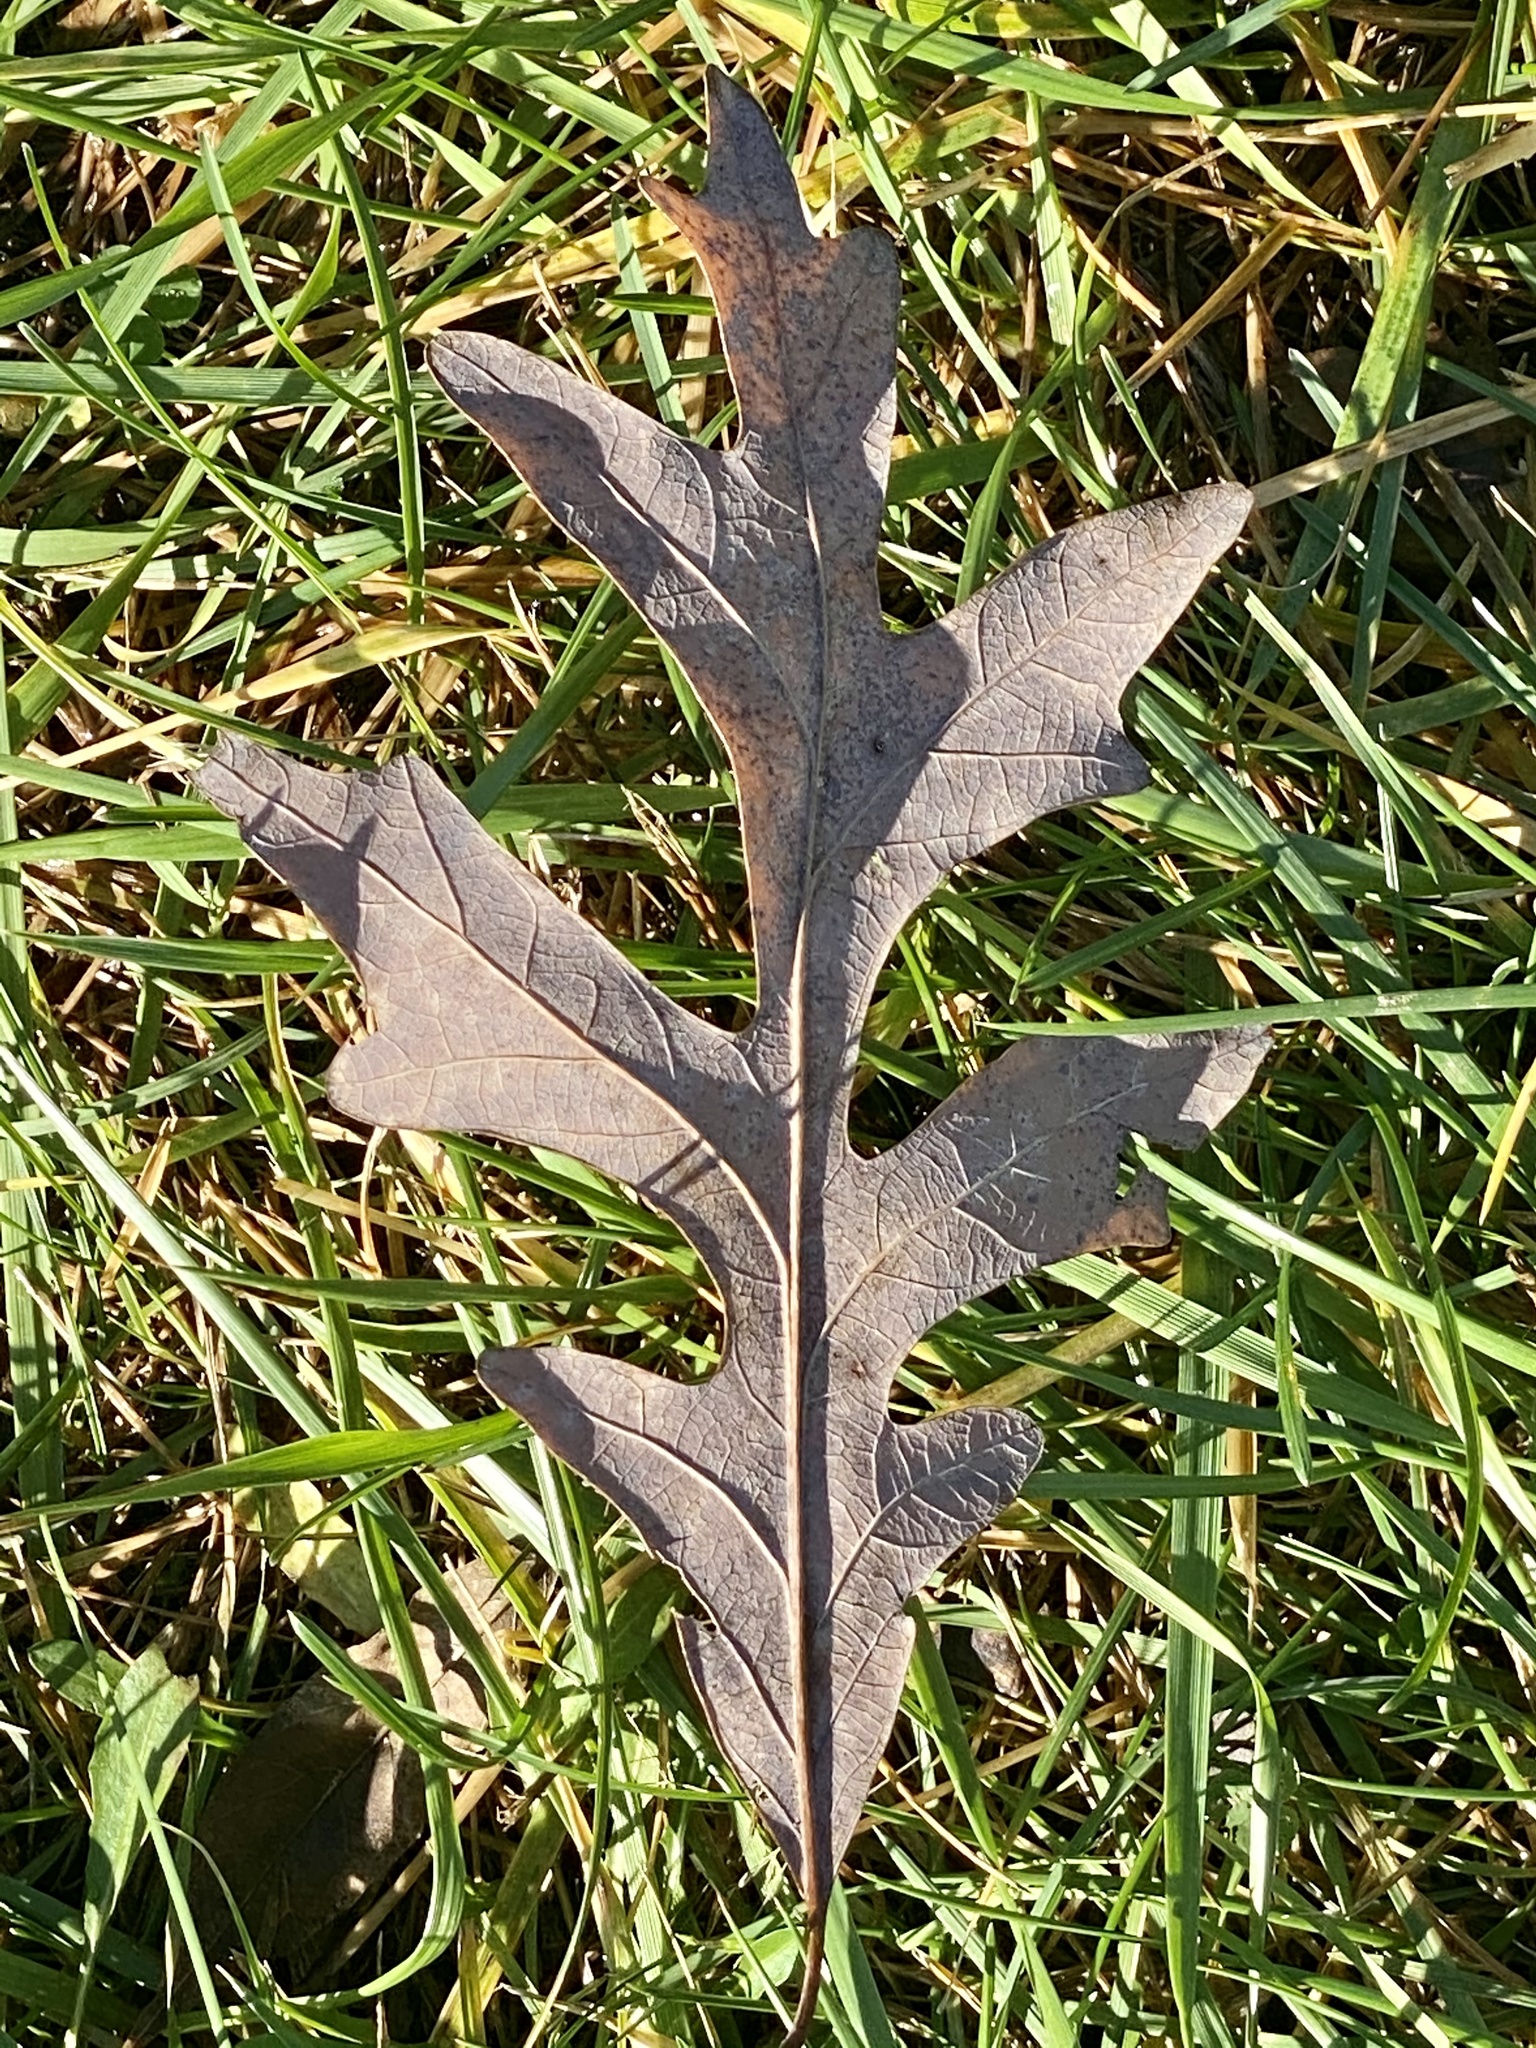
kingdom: Plantae
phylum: Tracheophyta
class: Magnoliopsida
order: Fagales
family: Fagaceae
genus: Quercus
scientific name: Quercus alba
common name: White oak
